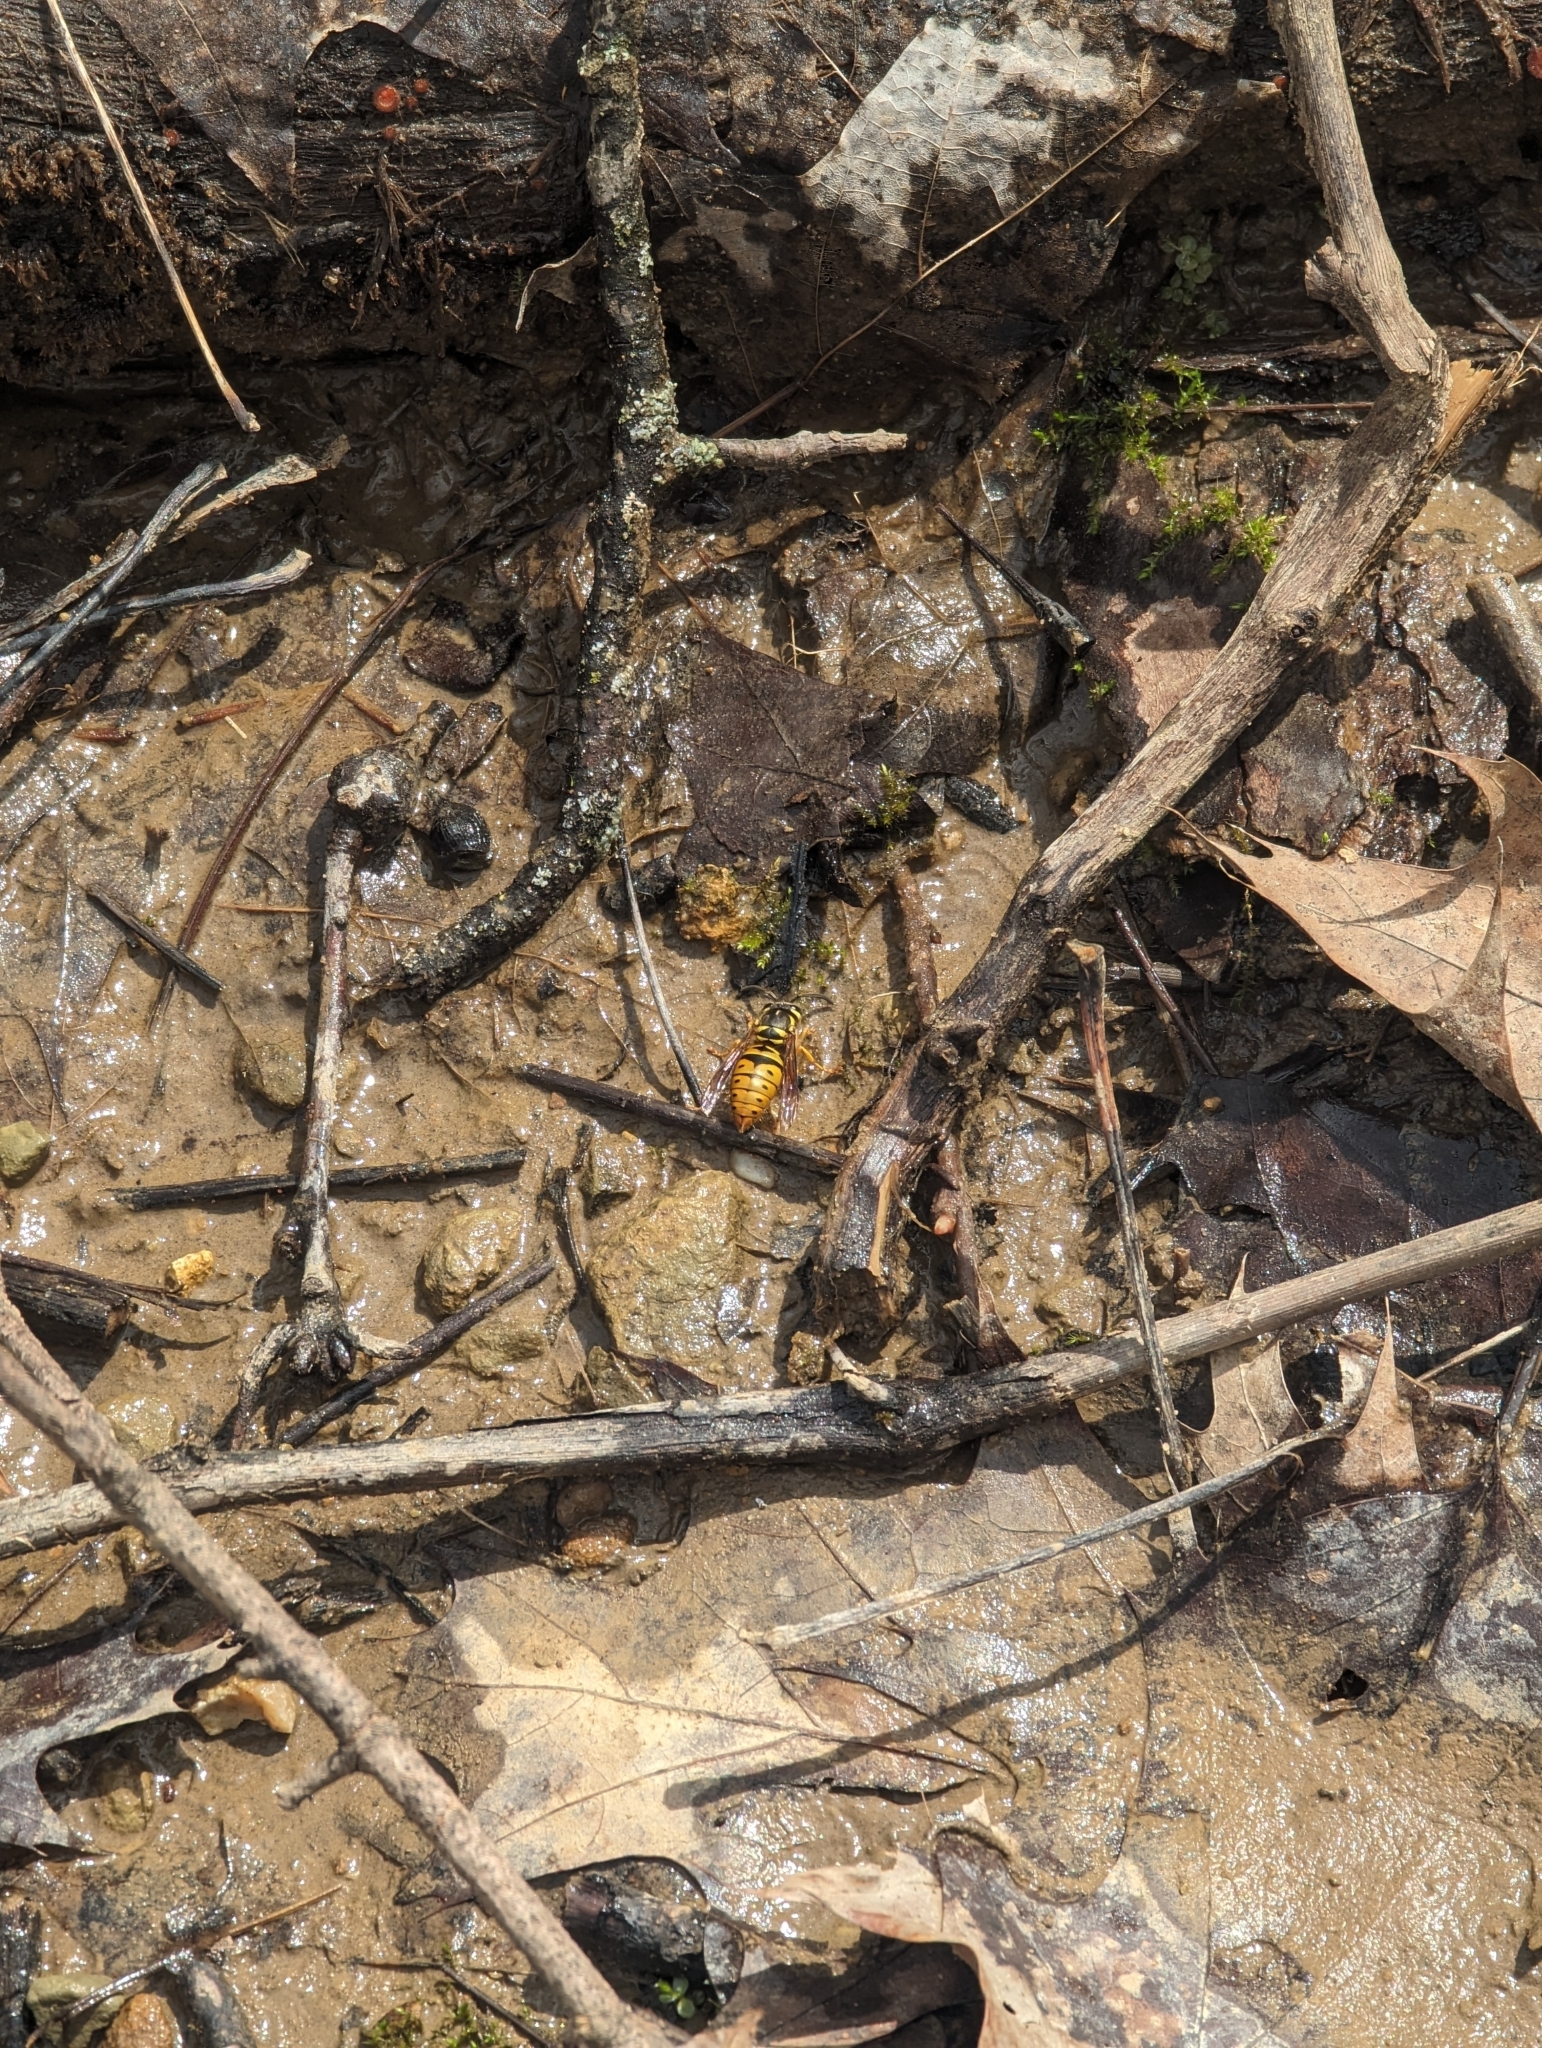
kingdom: Animalia
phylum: Arthropoda
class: Insecta
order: Hymenoptera
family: Vespidae
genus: Vespula
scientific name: Vespula maculifrons
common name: Eastern yellowjacket
